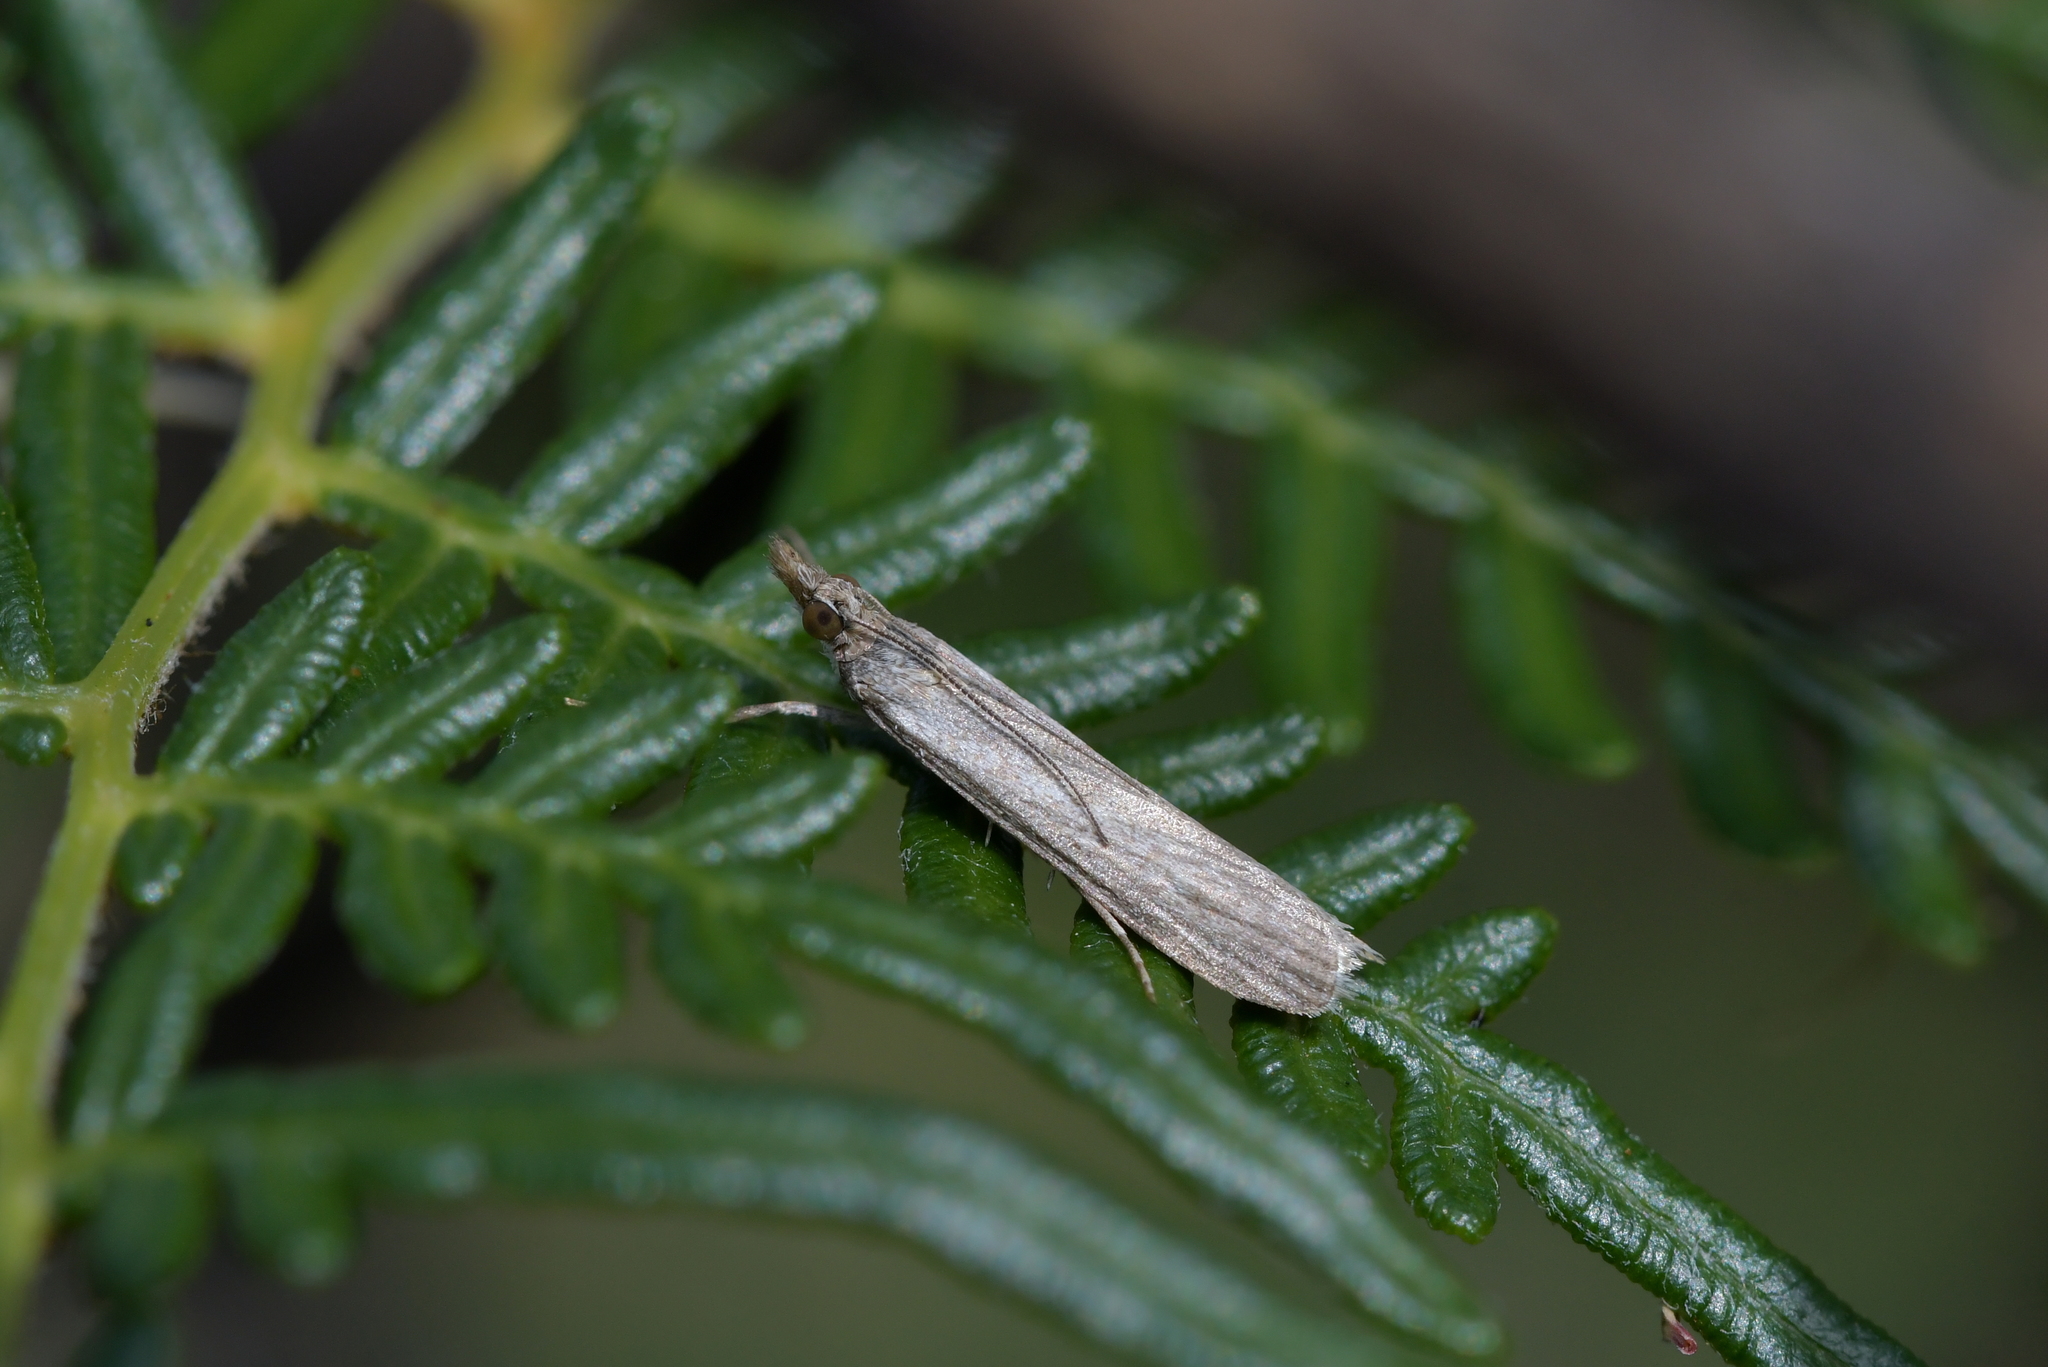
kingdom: Animalia
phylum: Arthropoda
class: Insecta
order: Lepidoptera
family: Crambidae
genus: Eudonia
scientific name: Eudonia leptalea
